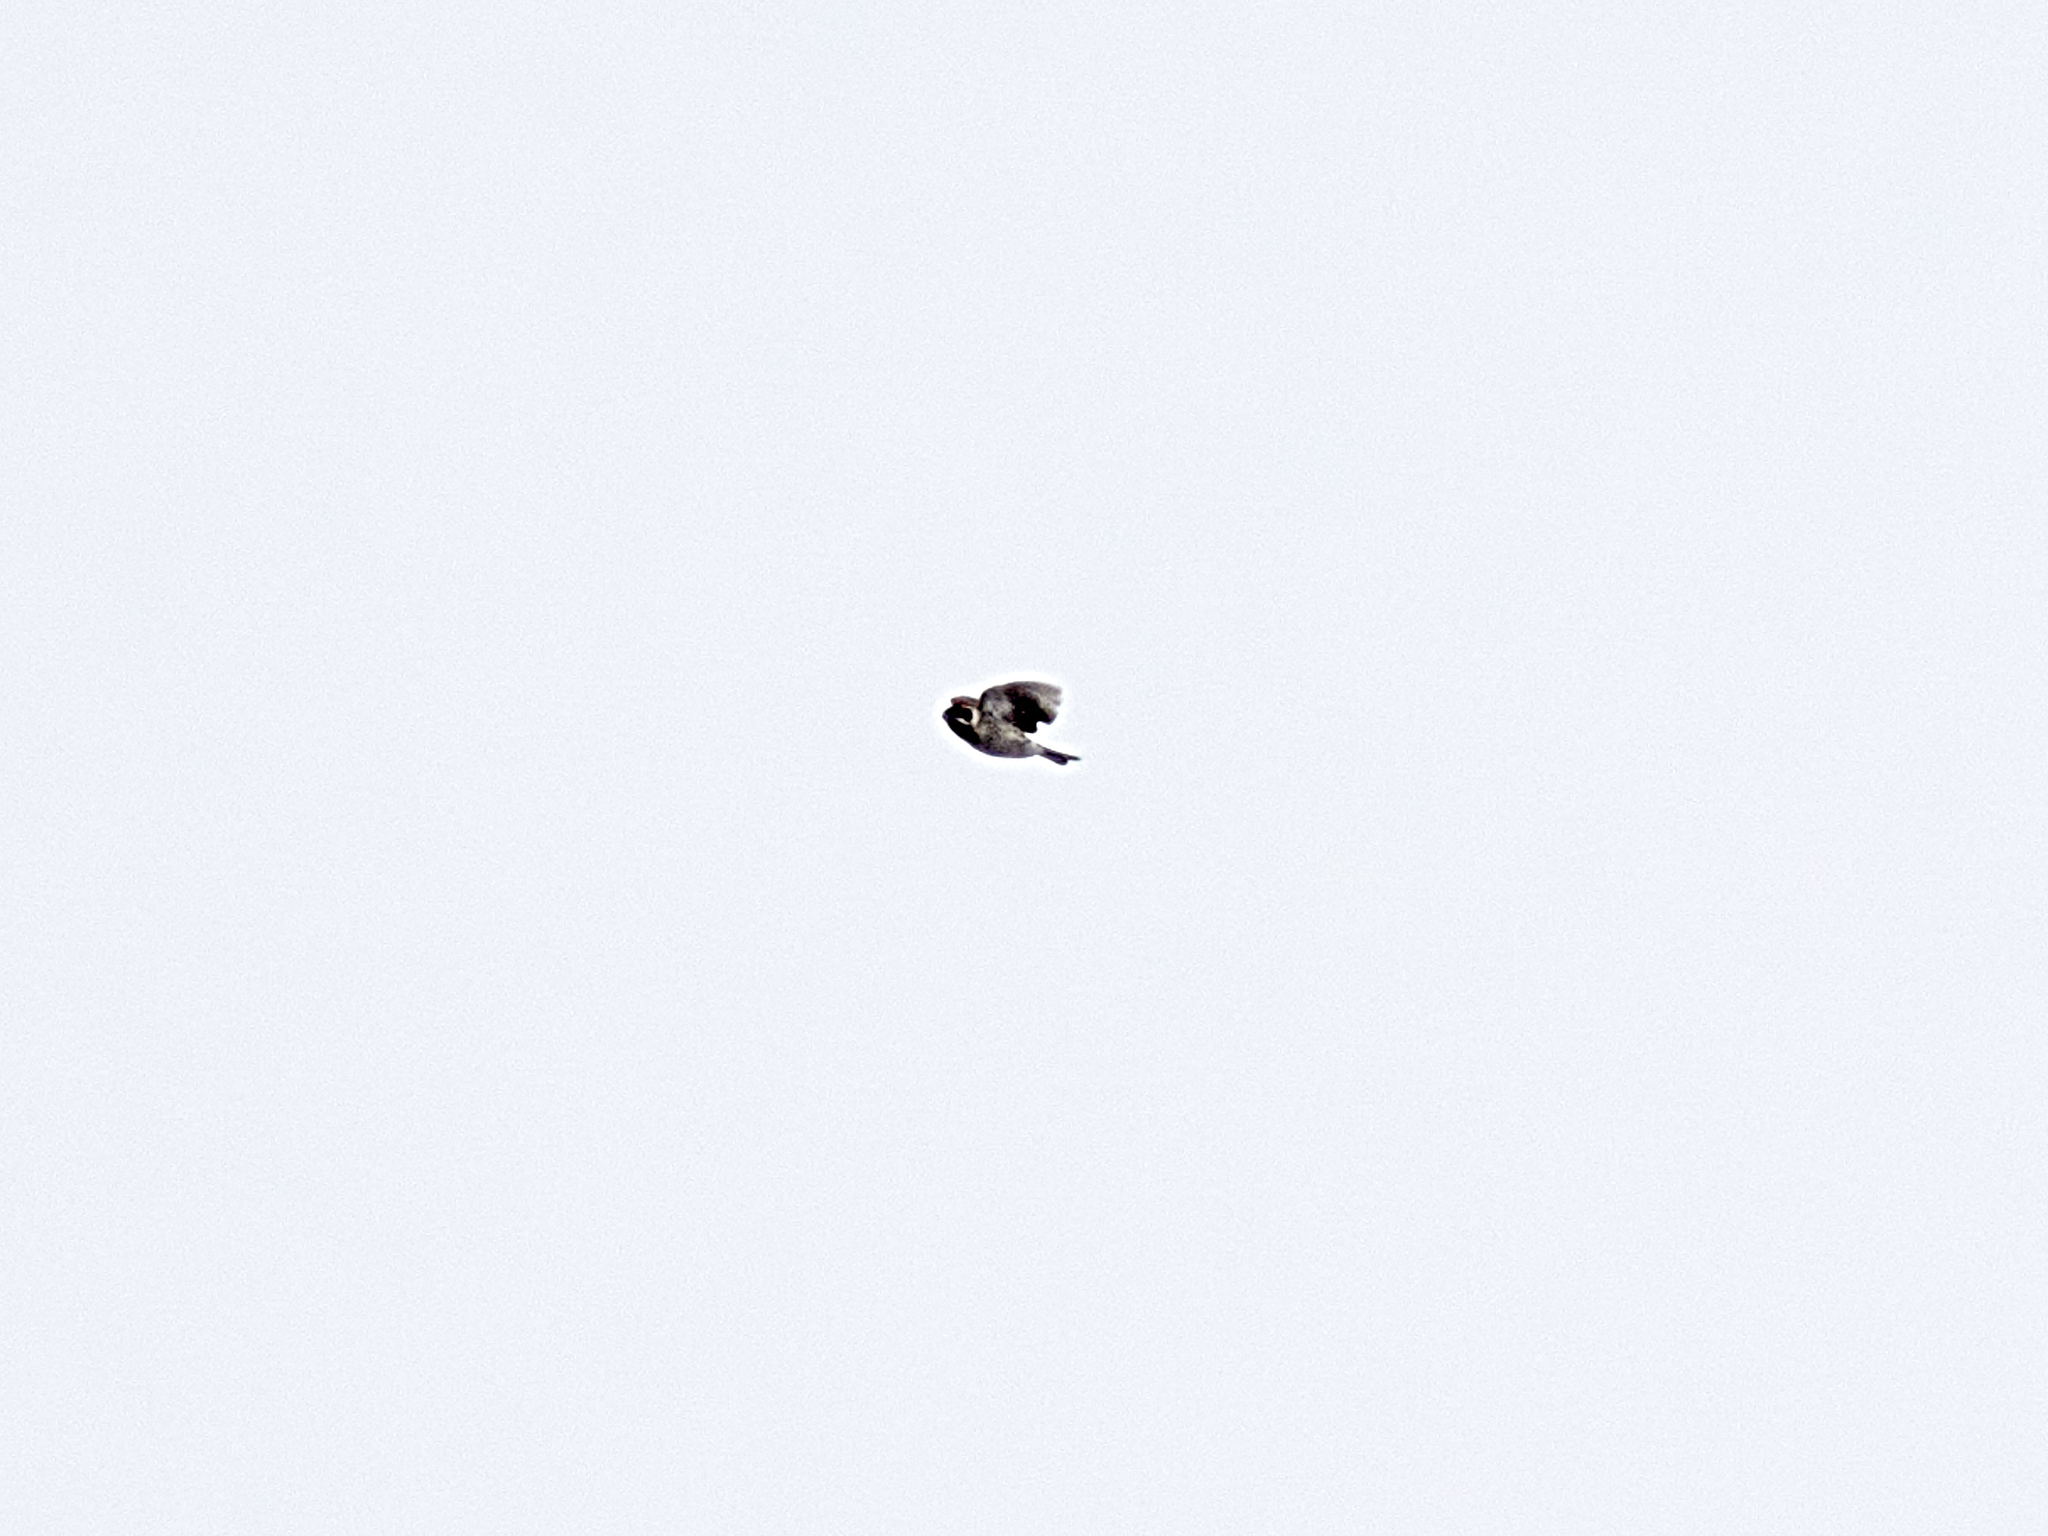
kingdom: Animalia
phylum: Chordata
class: Aves
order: Passeriformes
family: Emberizidae
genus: Emberiza
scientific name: Emberiza schoeniclus
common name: Reed bunting
